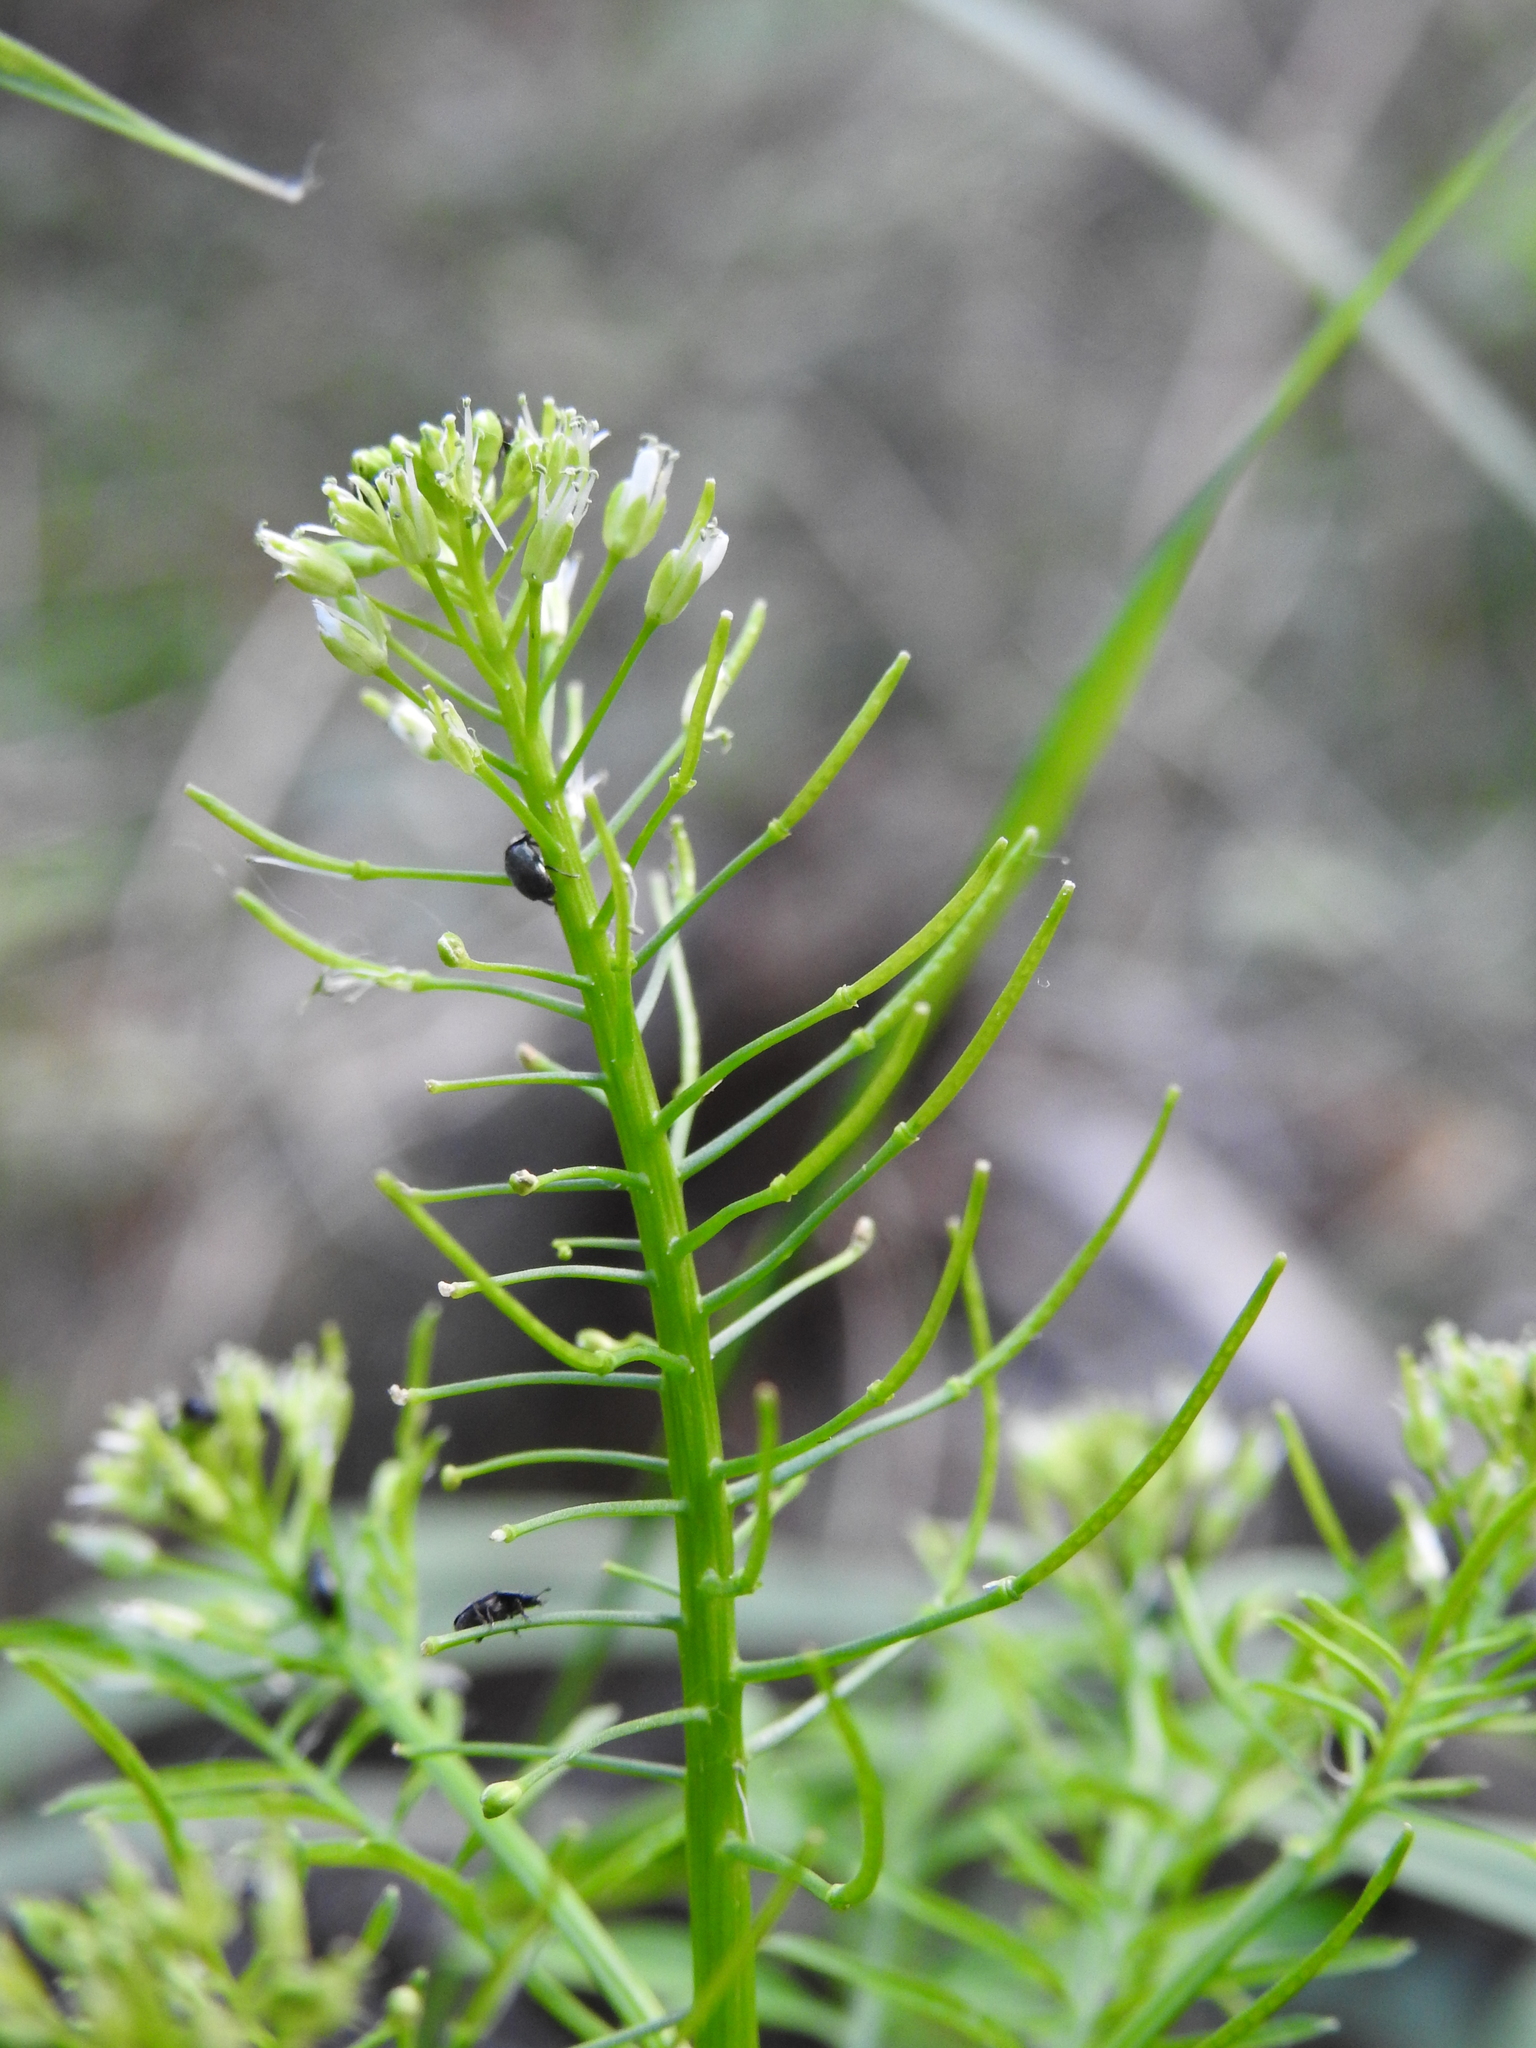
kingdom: Plantae
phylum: Tracheophyta
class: Magnoliopsida
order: Brassicales
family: Brassicaceae
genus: Cardamine
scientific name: Cardamine impatiens
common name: Narrow-leaved bitter-cress
